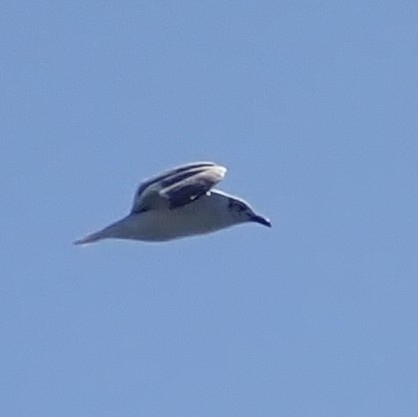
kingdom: Animalia
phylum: Chordata
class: Aves
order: Charadriiformes
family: Laridae
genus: Leucophaeus
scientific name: Leucophaeus atricilla
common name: Laughing gull
